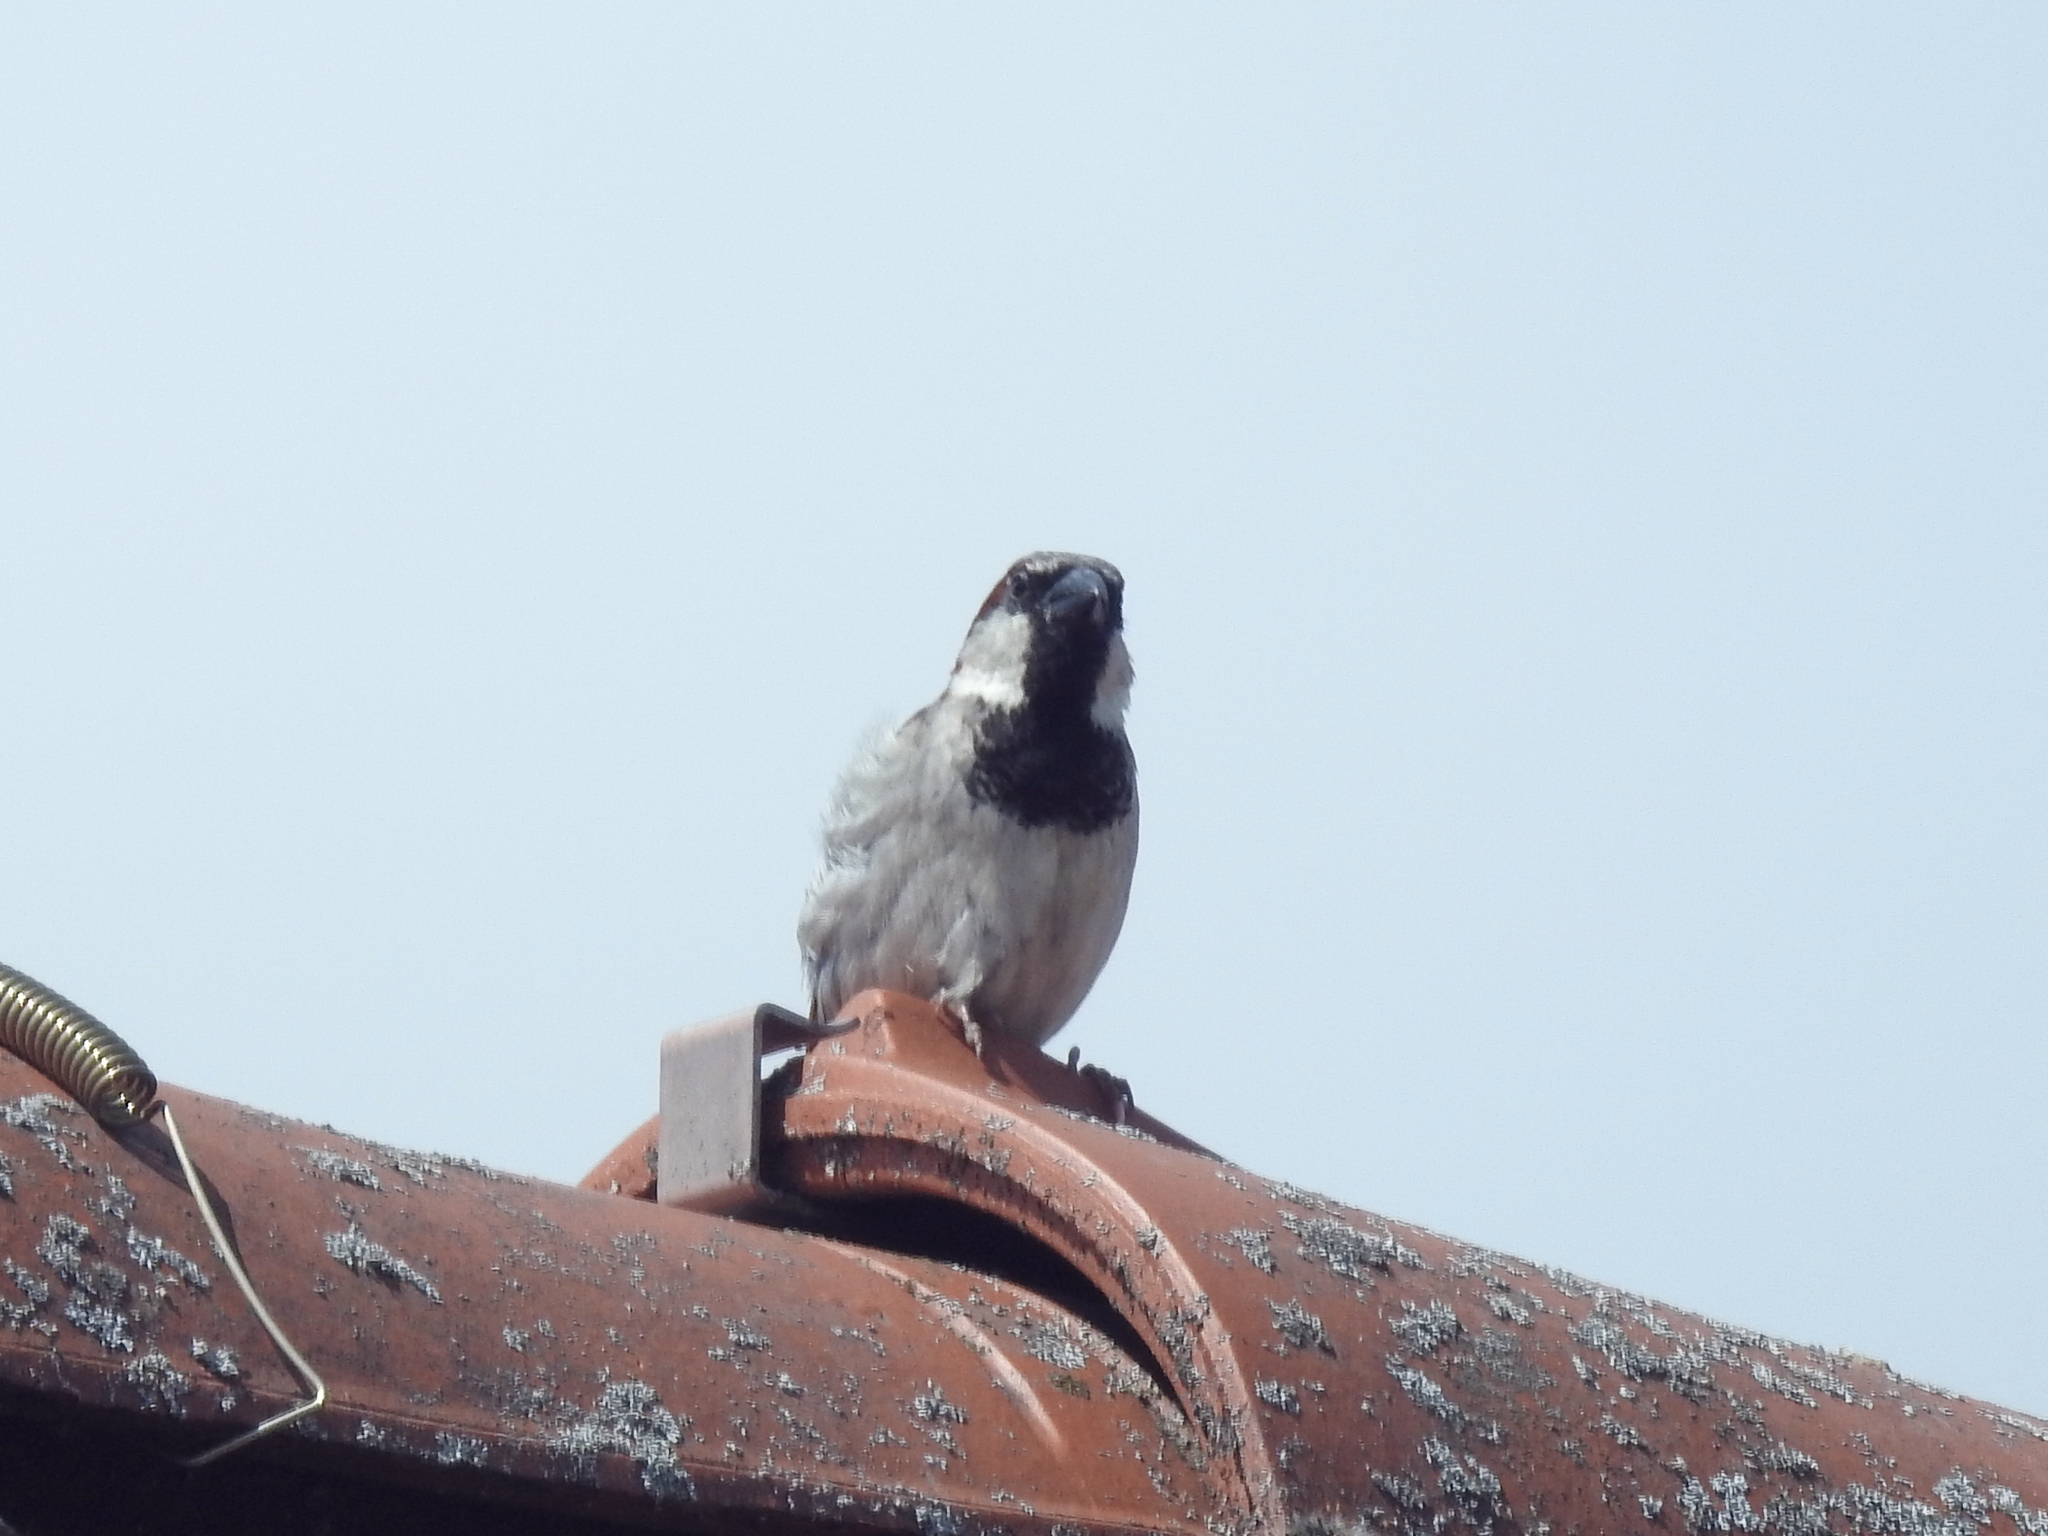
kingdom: Animalia
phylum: Chordata
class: Aves
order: Passeriformes
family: Passeridae
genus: Passer
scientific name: Passer domesticus
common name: House sparrow
